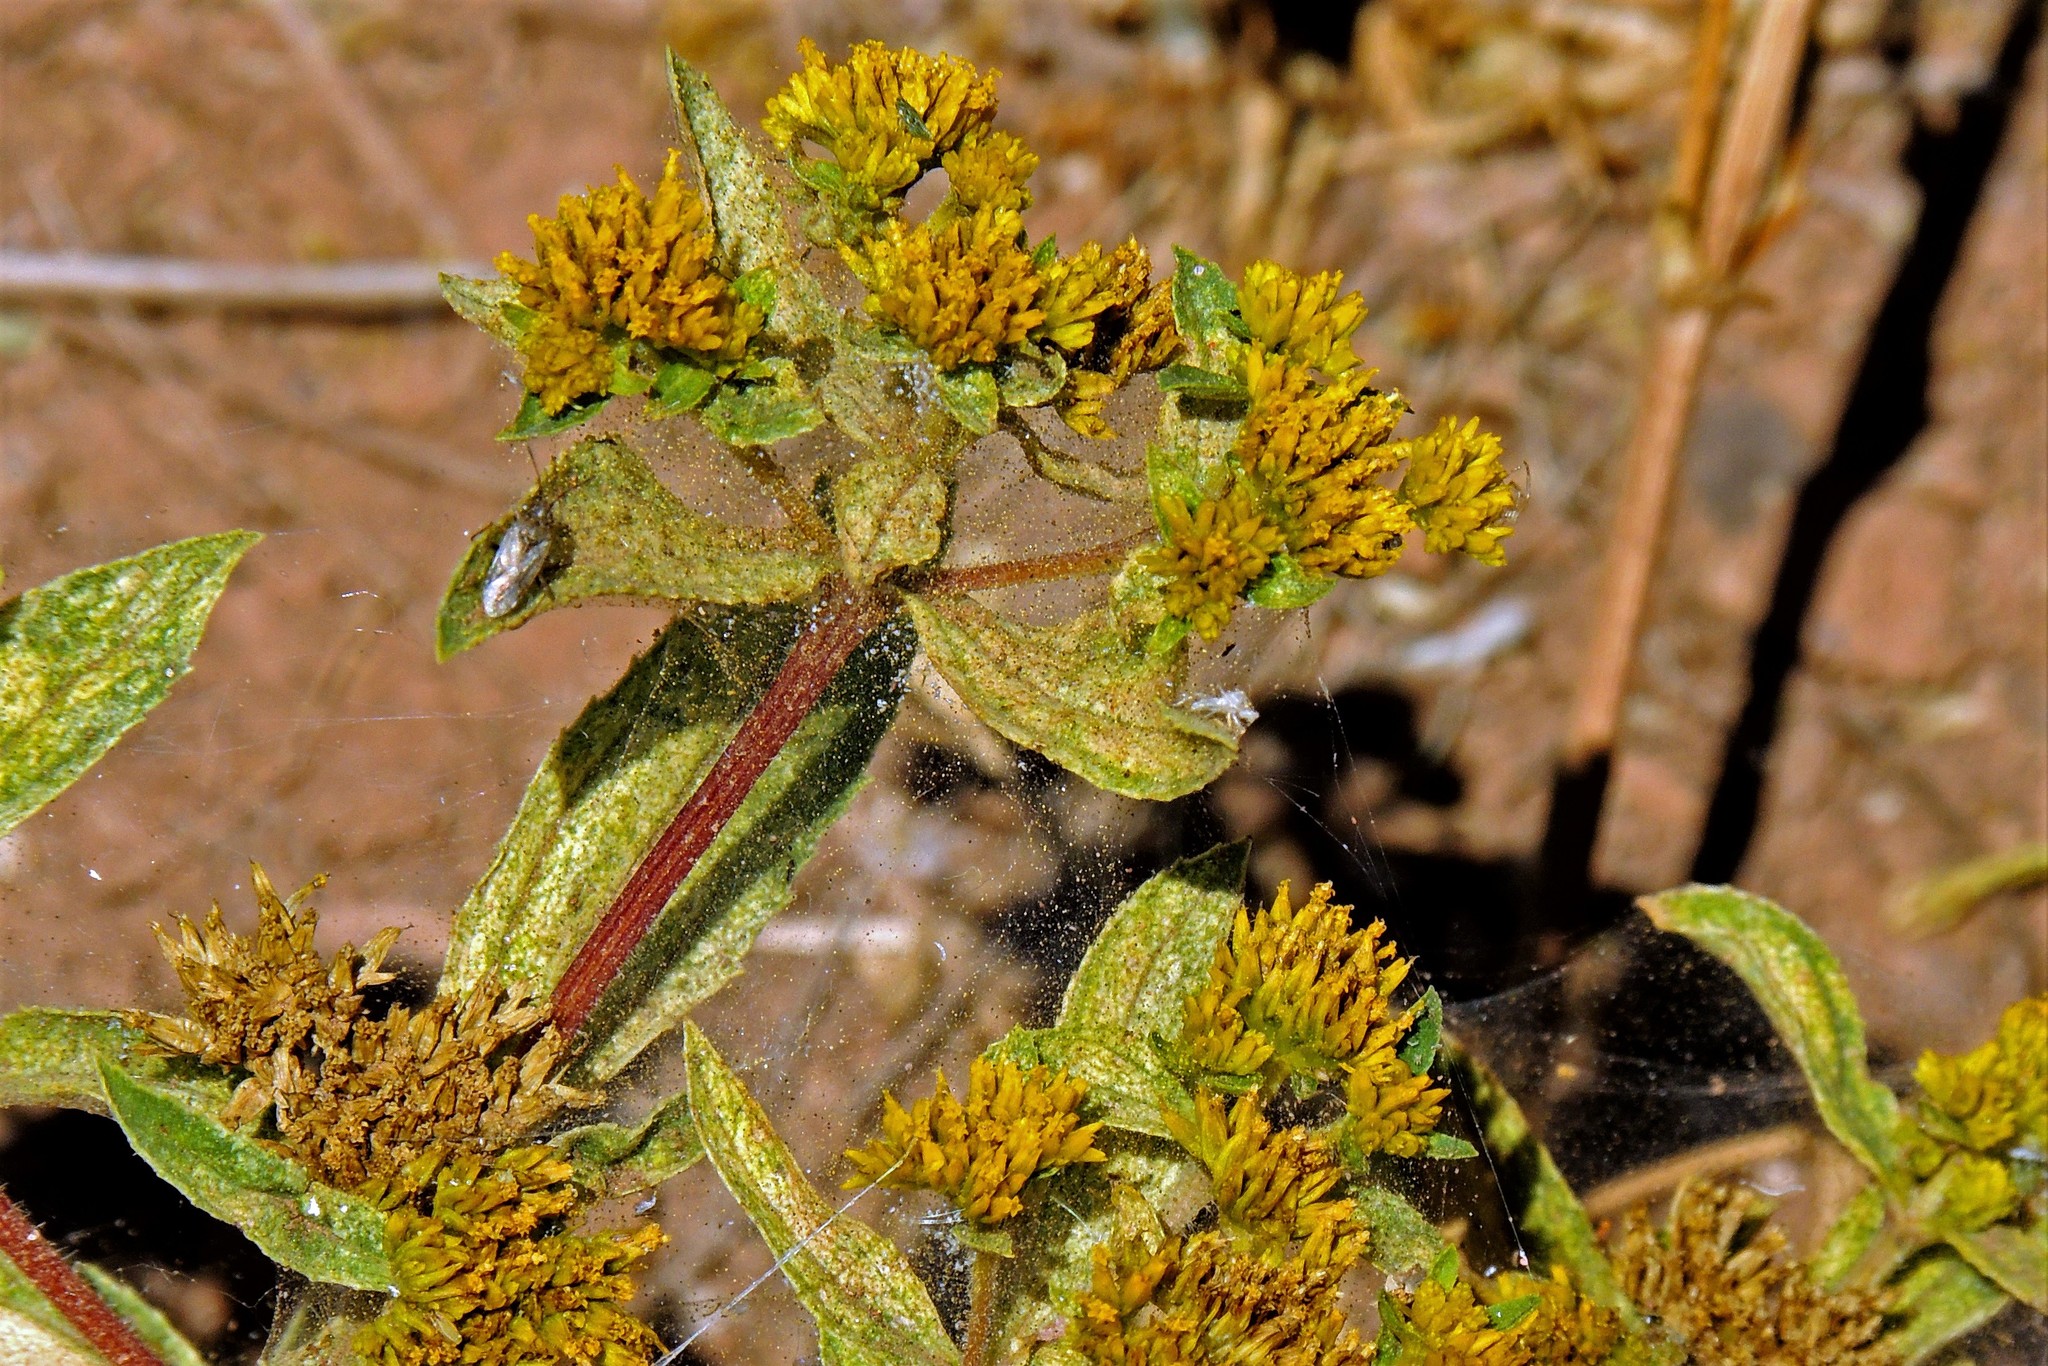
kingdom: Plantae
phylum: Tracheophyta
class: Magnoliopsida
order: Asterales
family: Asteraceae
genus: Flaveria
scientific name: Flaveria bidentis
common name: Coastal plain yellowtops
